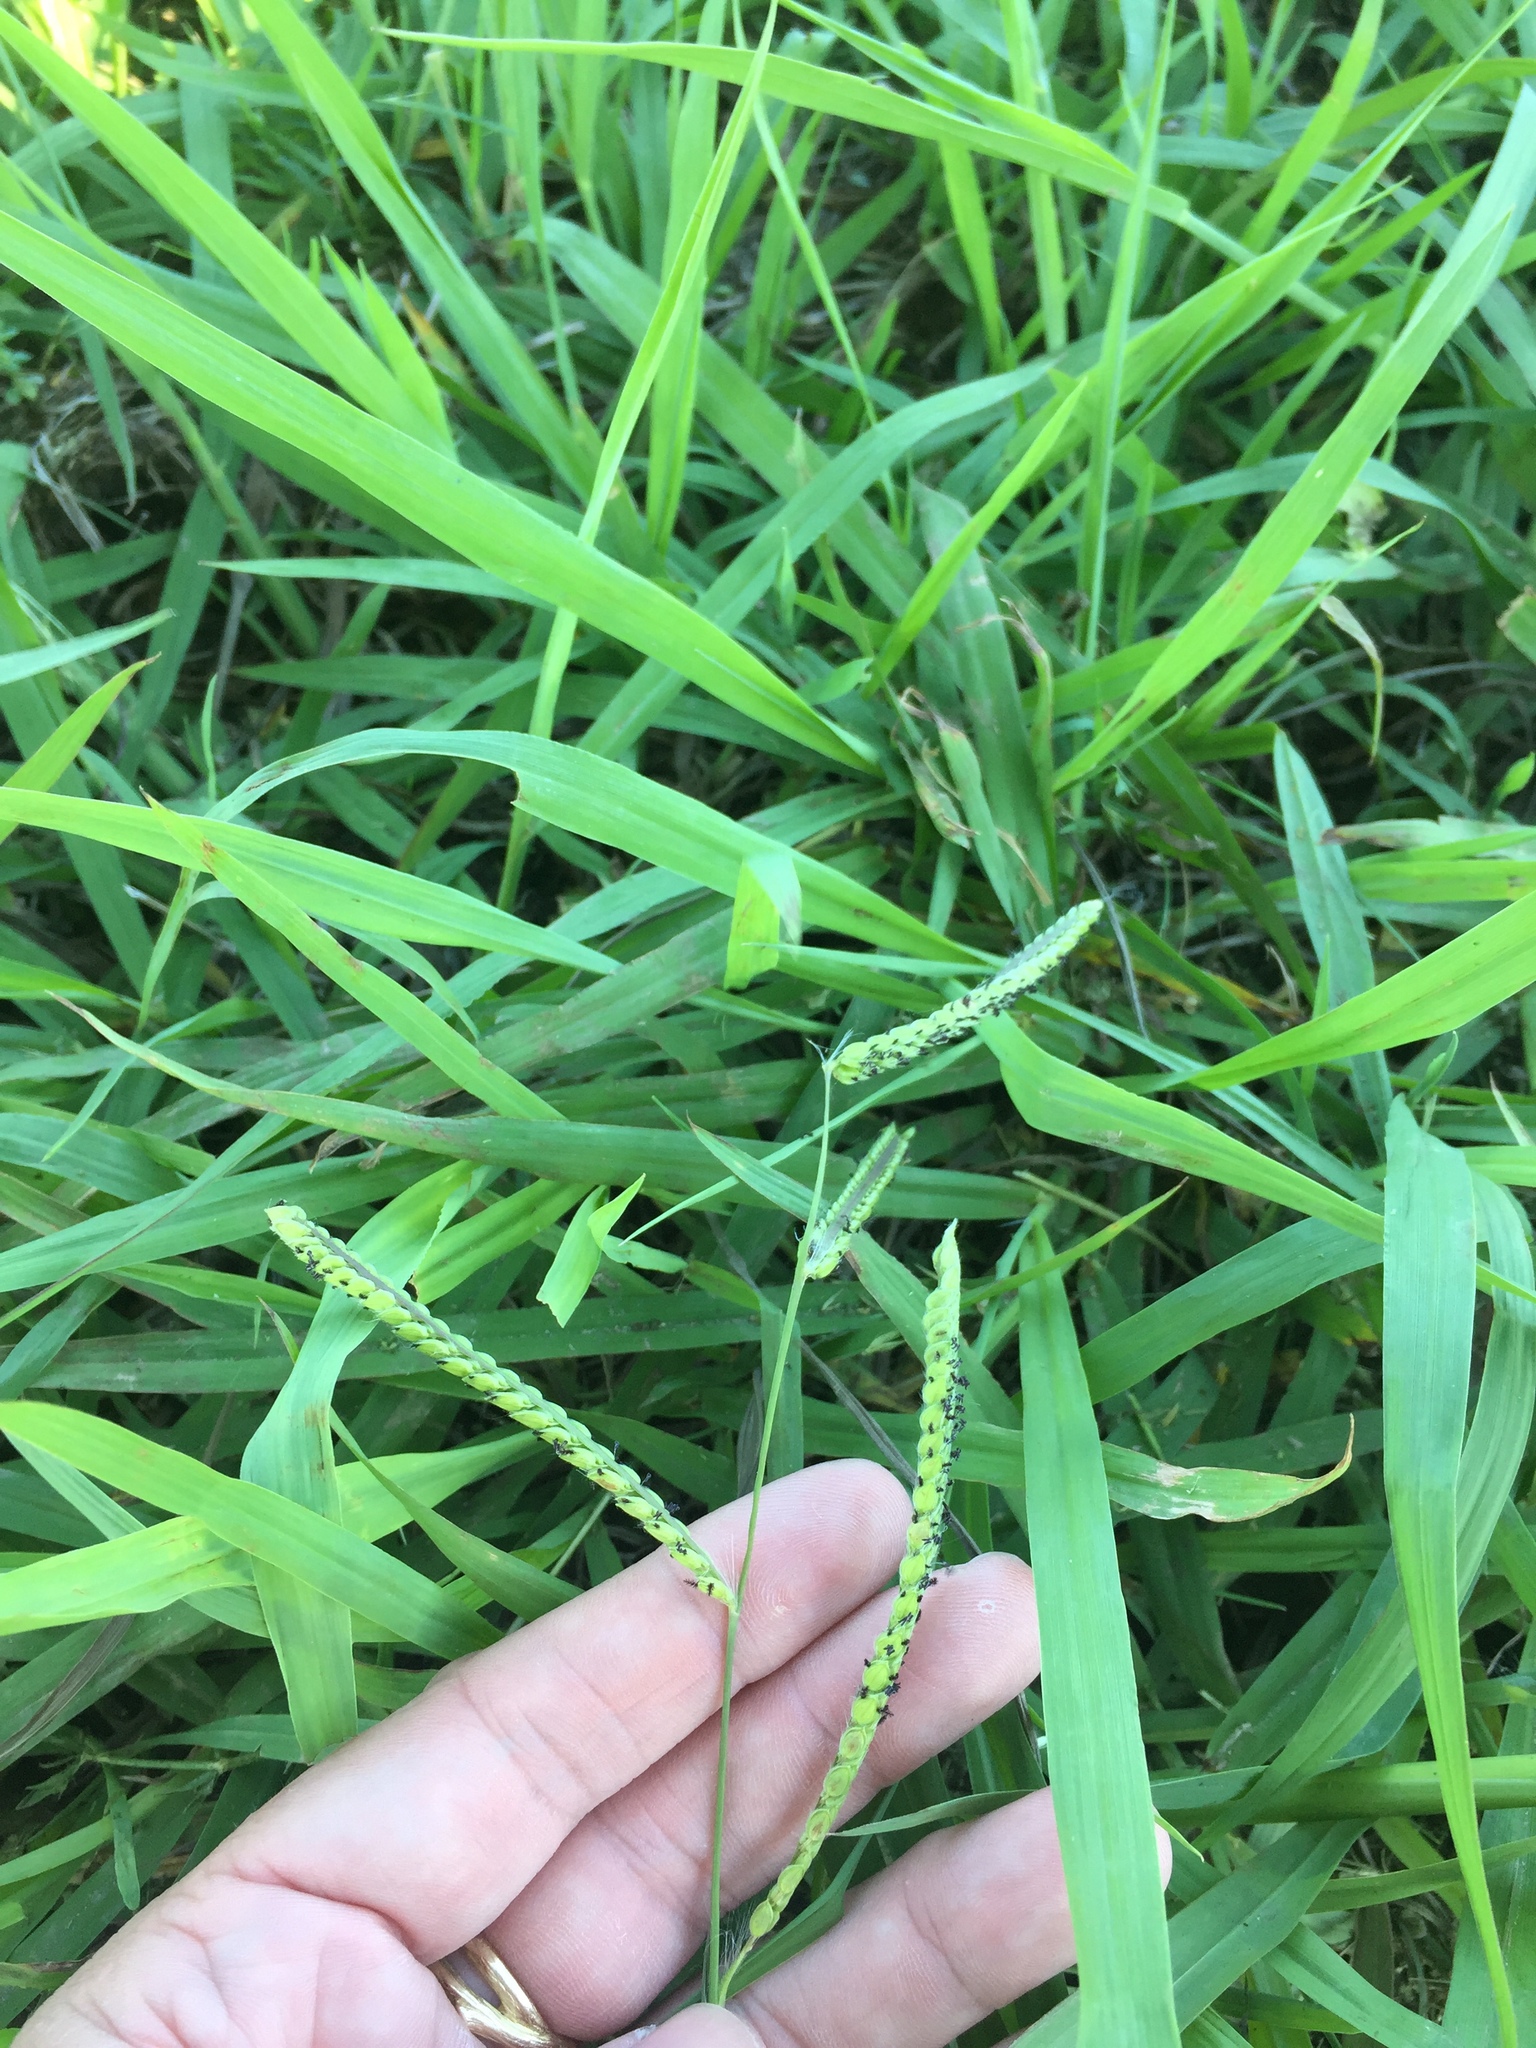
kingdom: Plantae
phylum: Tracheophyta
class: Liliopsida
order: Poales
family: Poaceae
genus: Paspalum
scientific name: Paspalum dilatatum
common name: Dallisgrass
